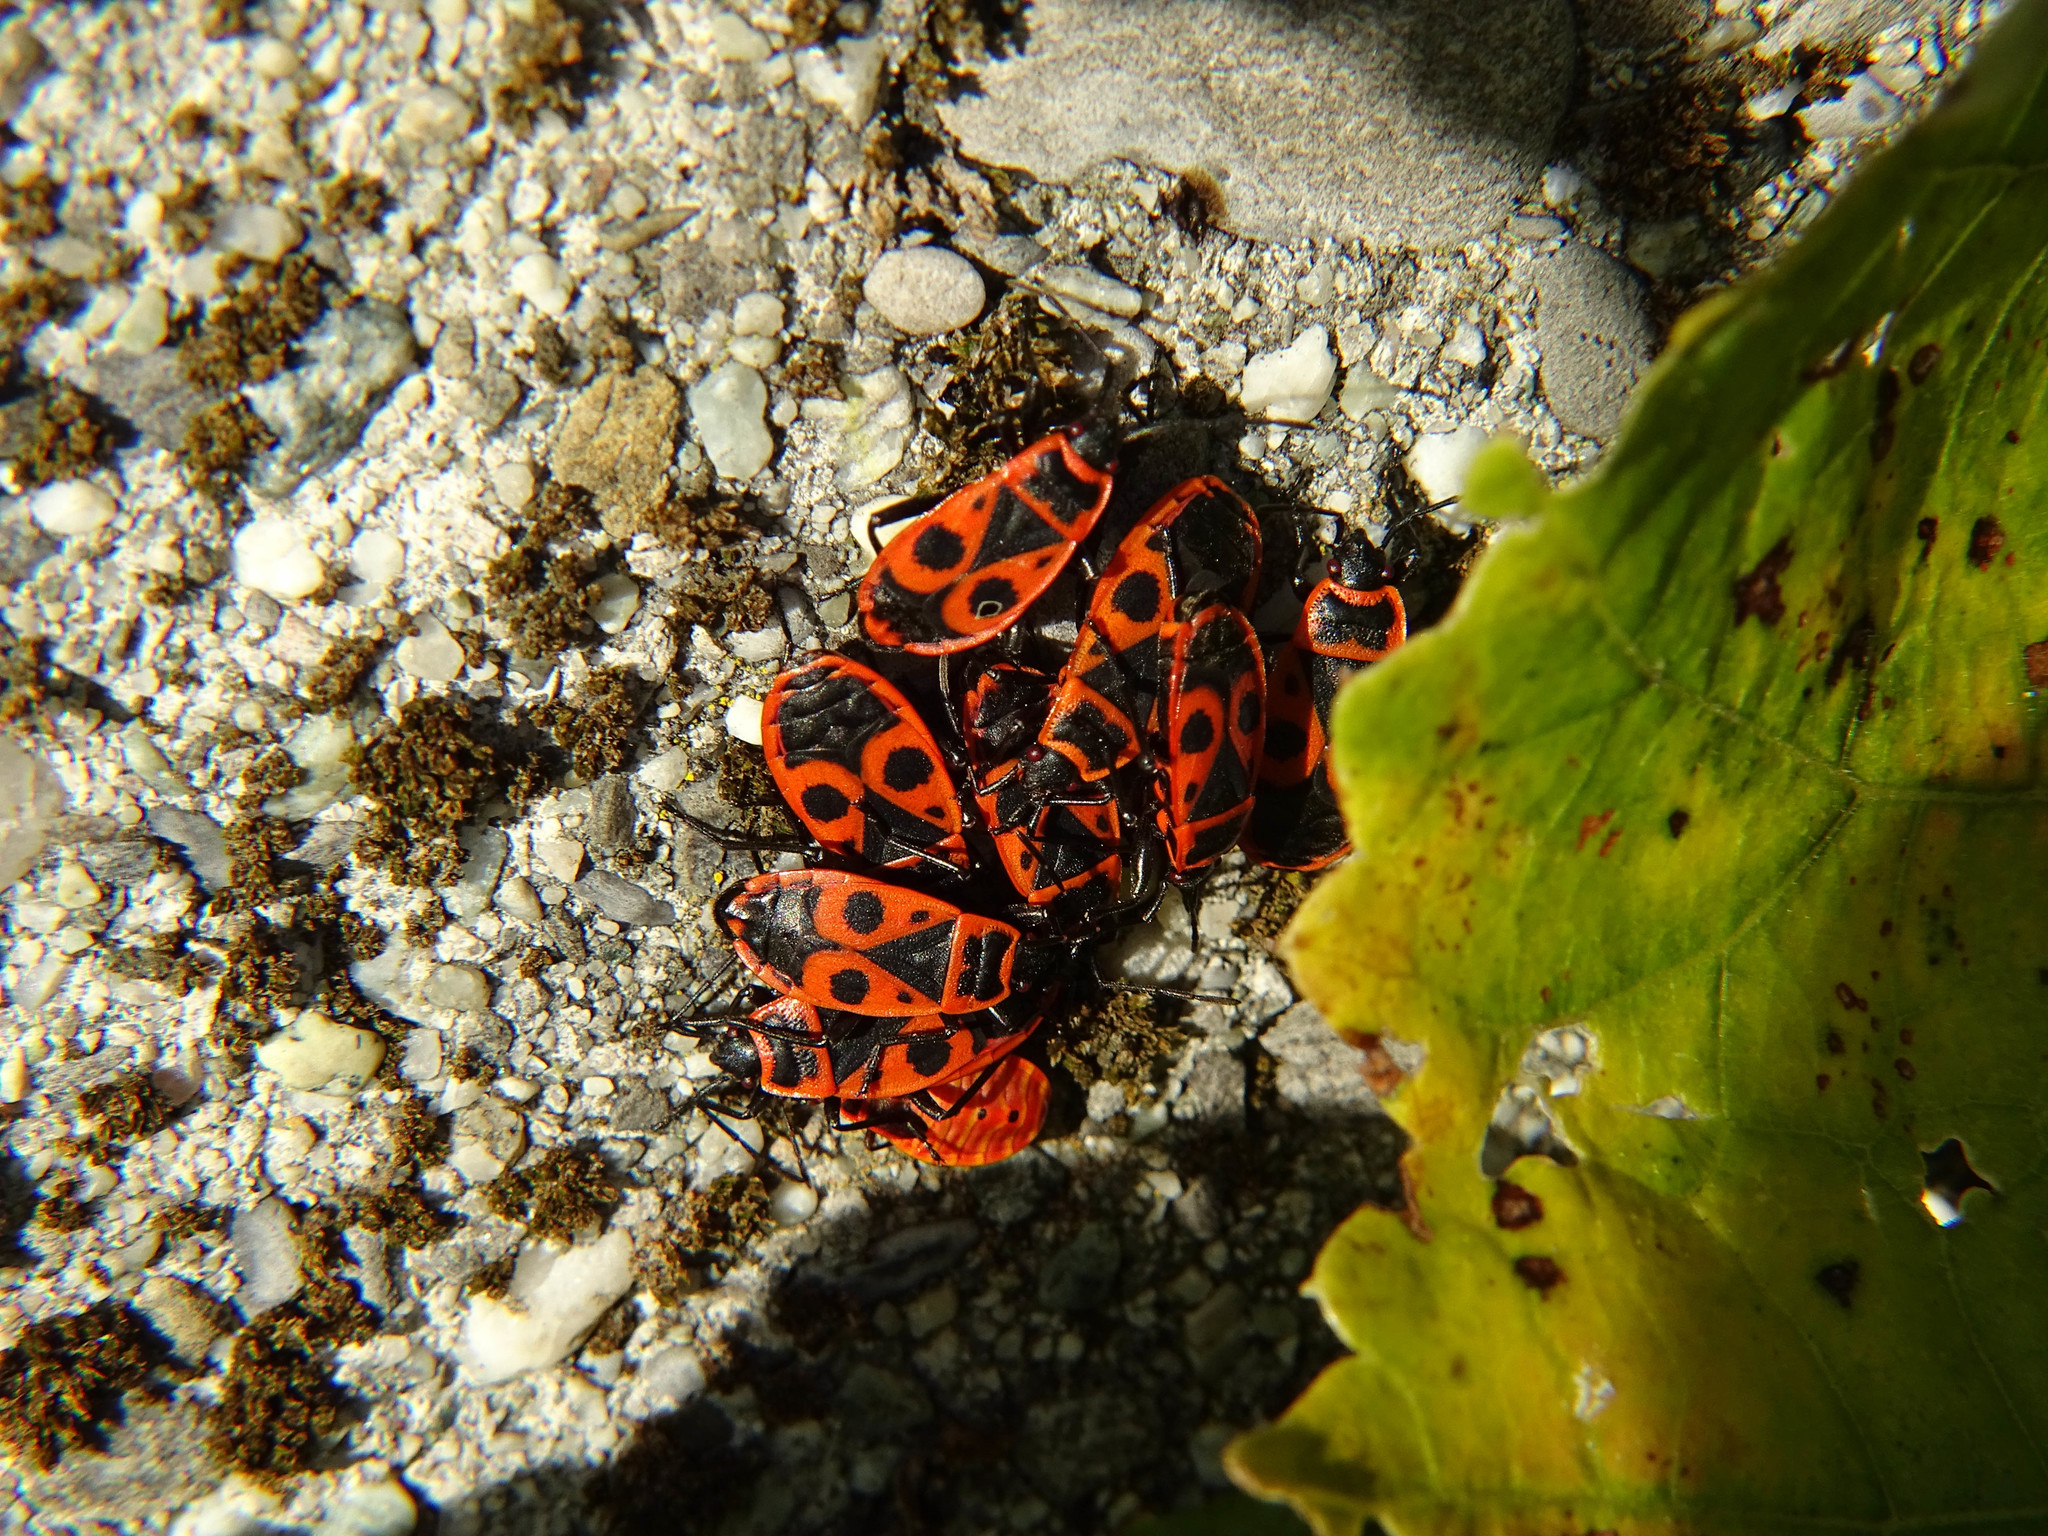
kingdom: Animalia
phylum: Arthropoda
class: Insecta
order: Hemiptera
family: Pyrrhocoridae
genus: Pyrrhocoris
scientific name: Pyrrhocoris apterus
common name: Firebug
